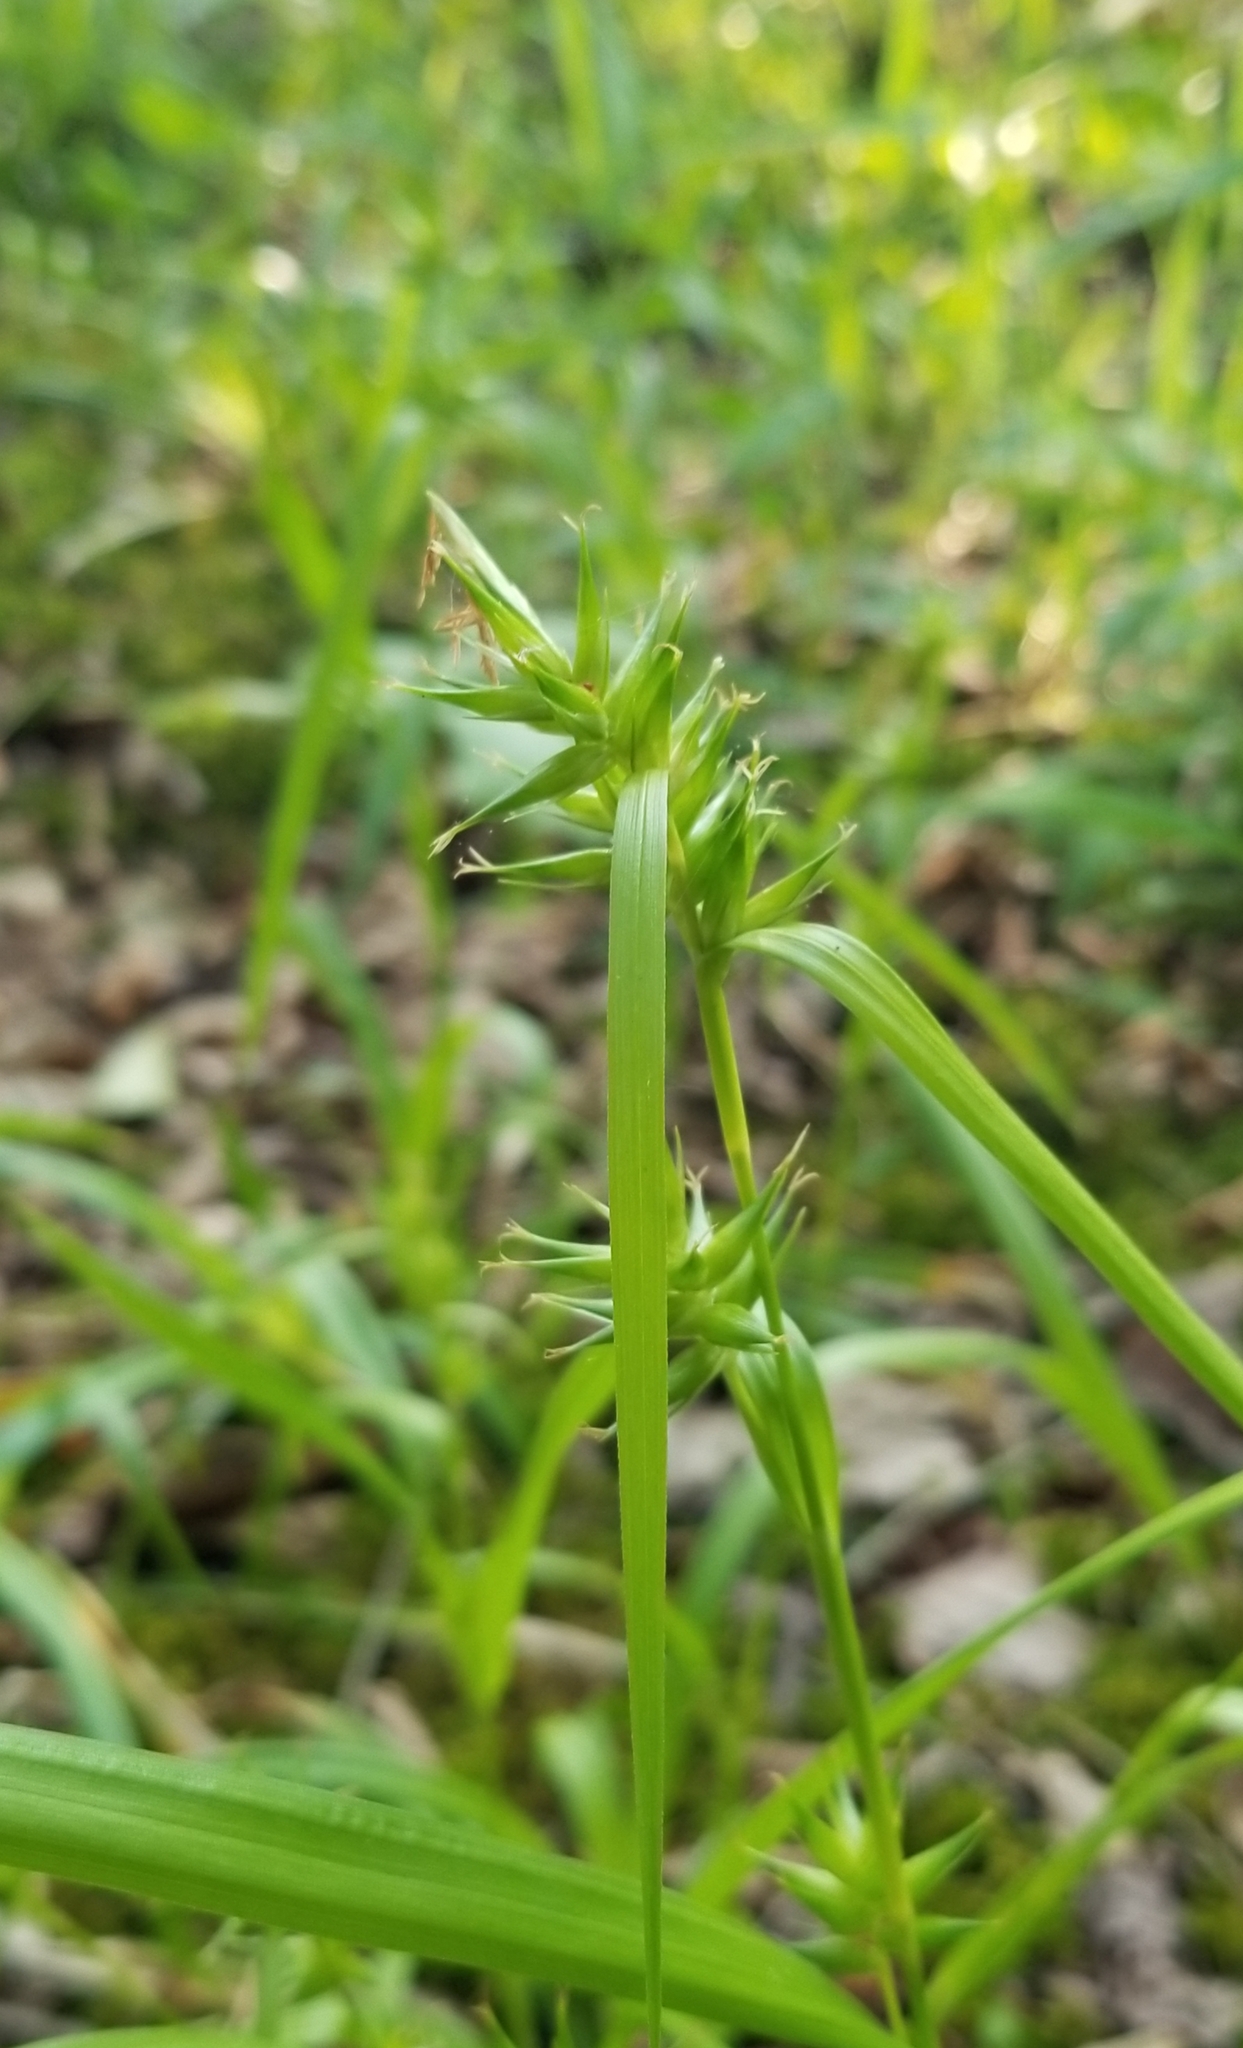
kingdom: Plantae
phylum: Tracheophyta
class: Liliopsida
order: Poales
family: Cyperaceae
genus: Carex
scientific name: Carex folliculata
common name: Northern long sedge
